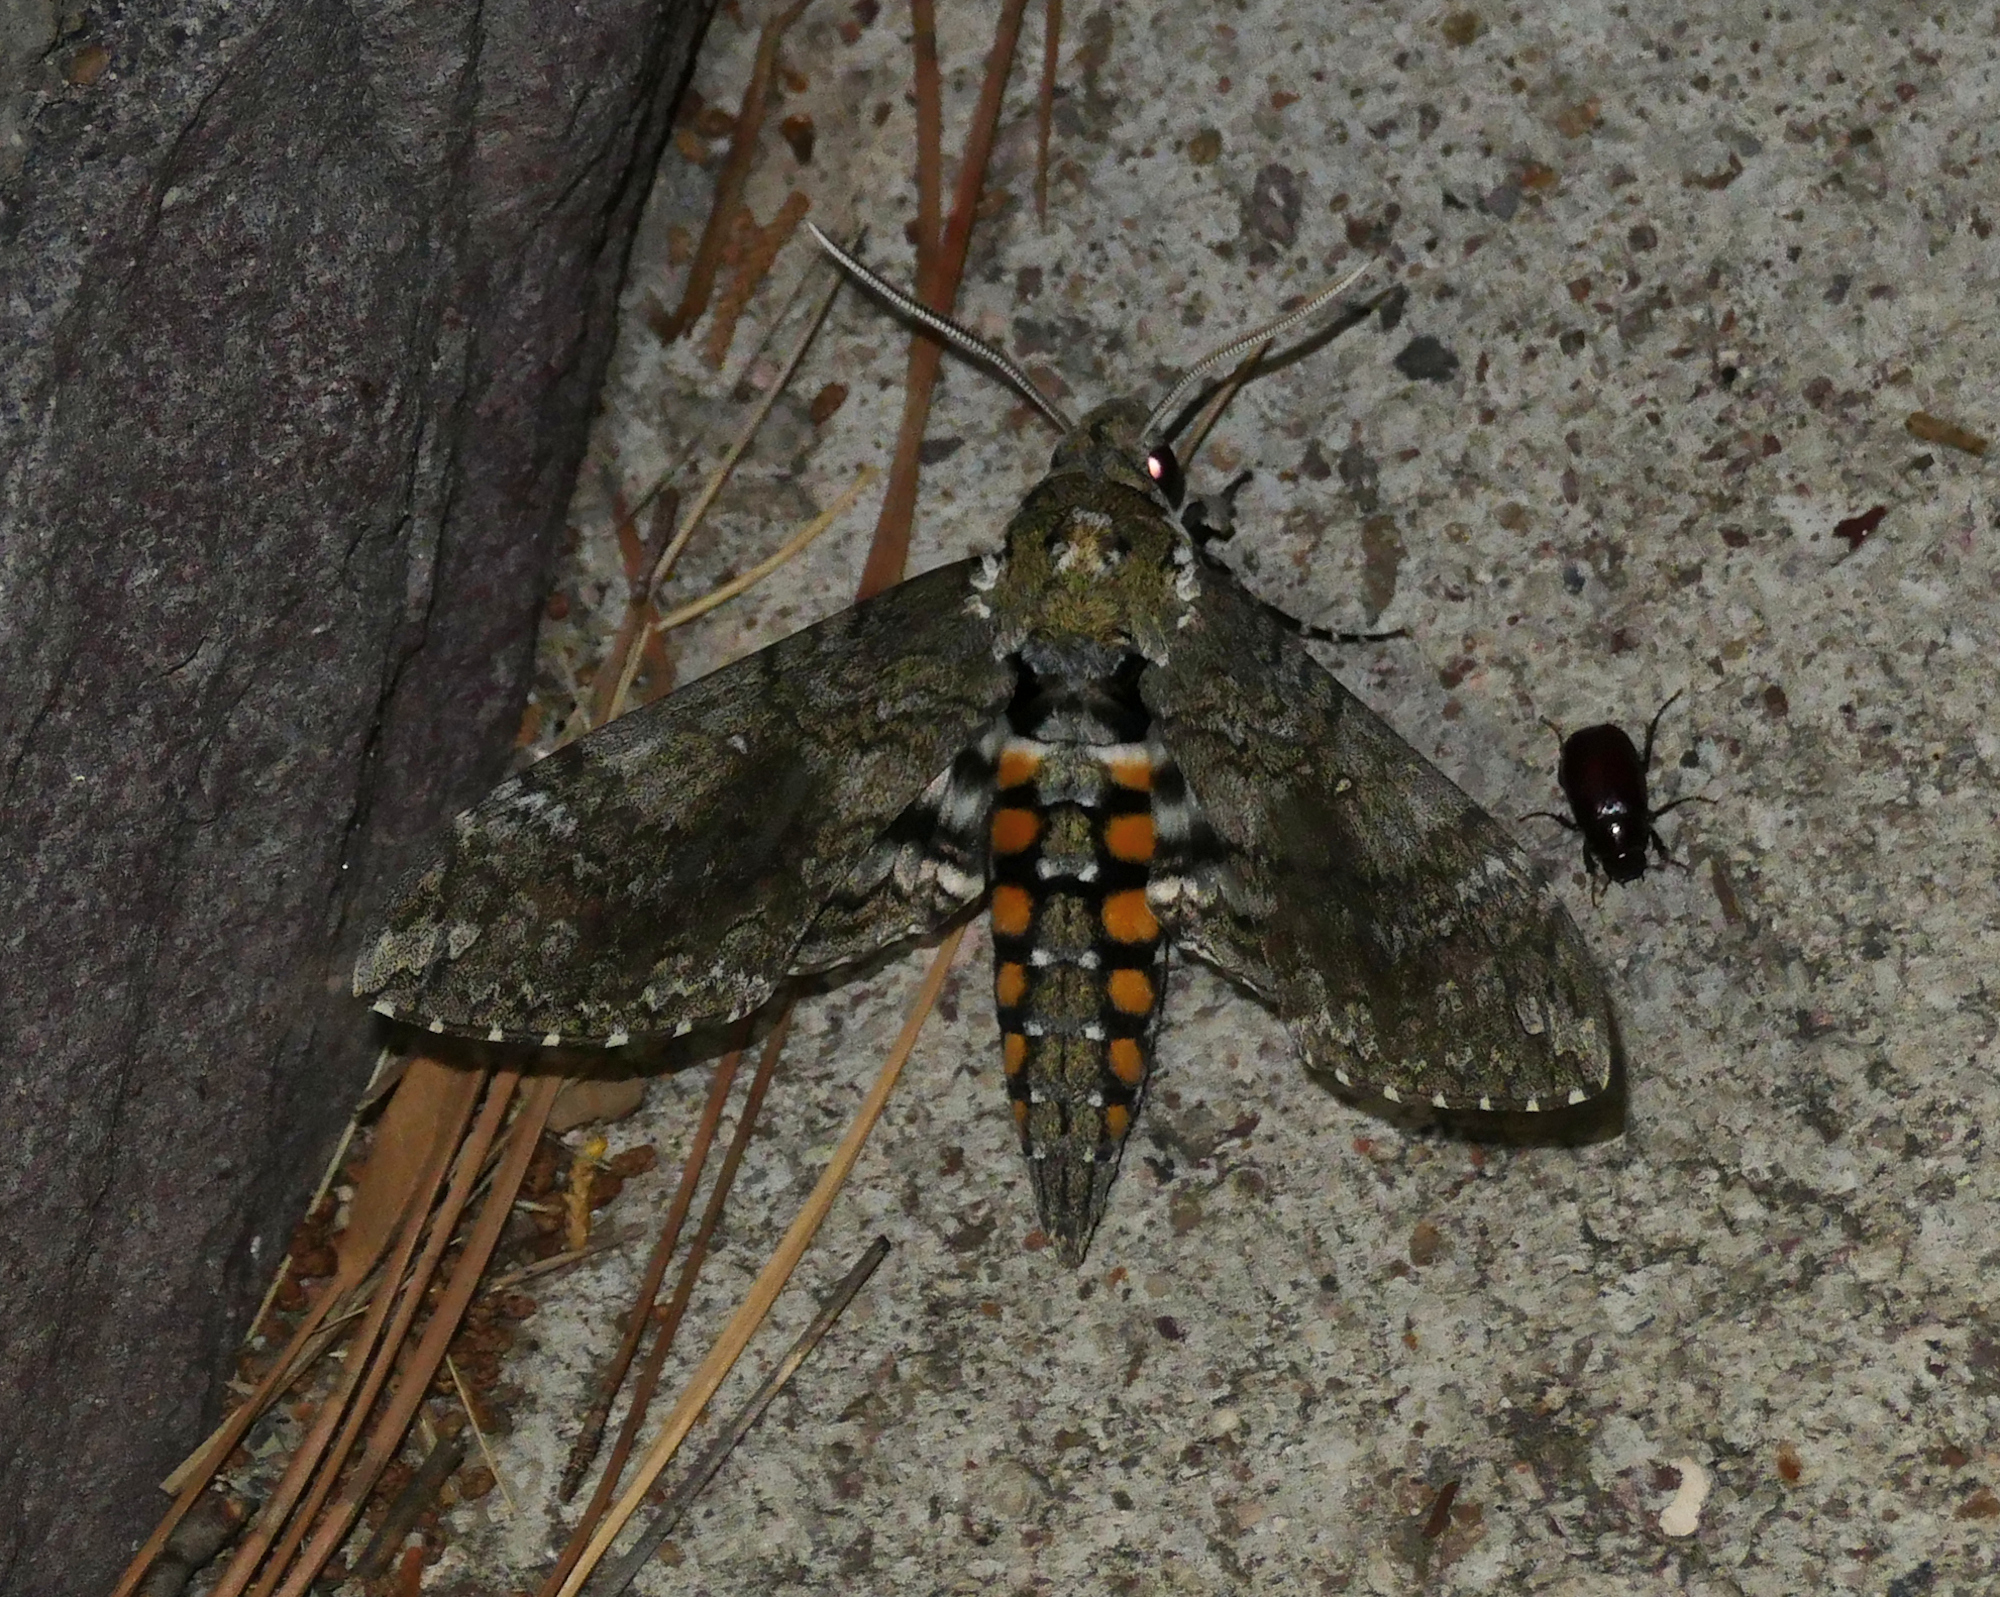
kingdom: Animalia
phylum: Arthropoda
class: Insecta
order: Lepidoptera
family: Sphingidae
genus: Manduca
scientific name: Manduca sexta
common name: Carolina sphinx
